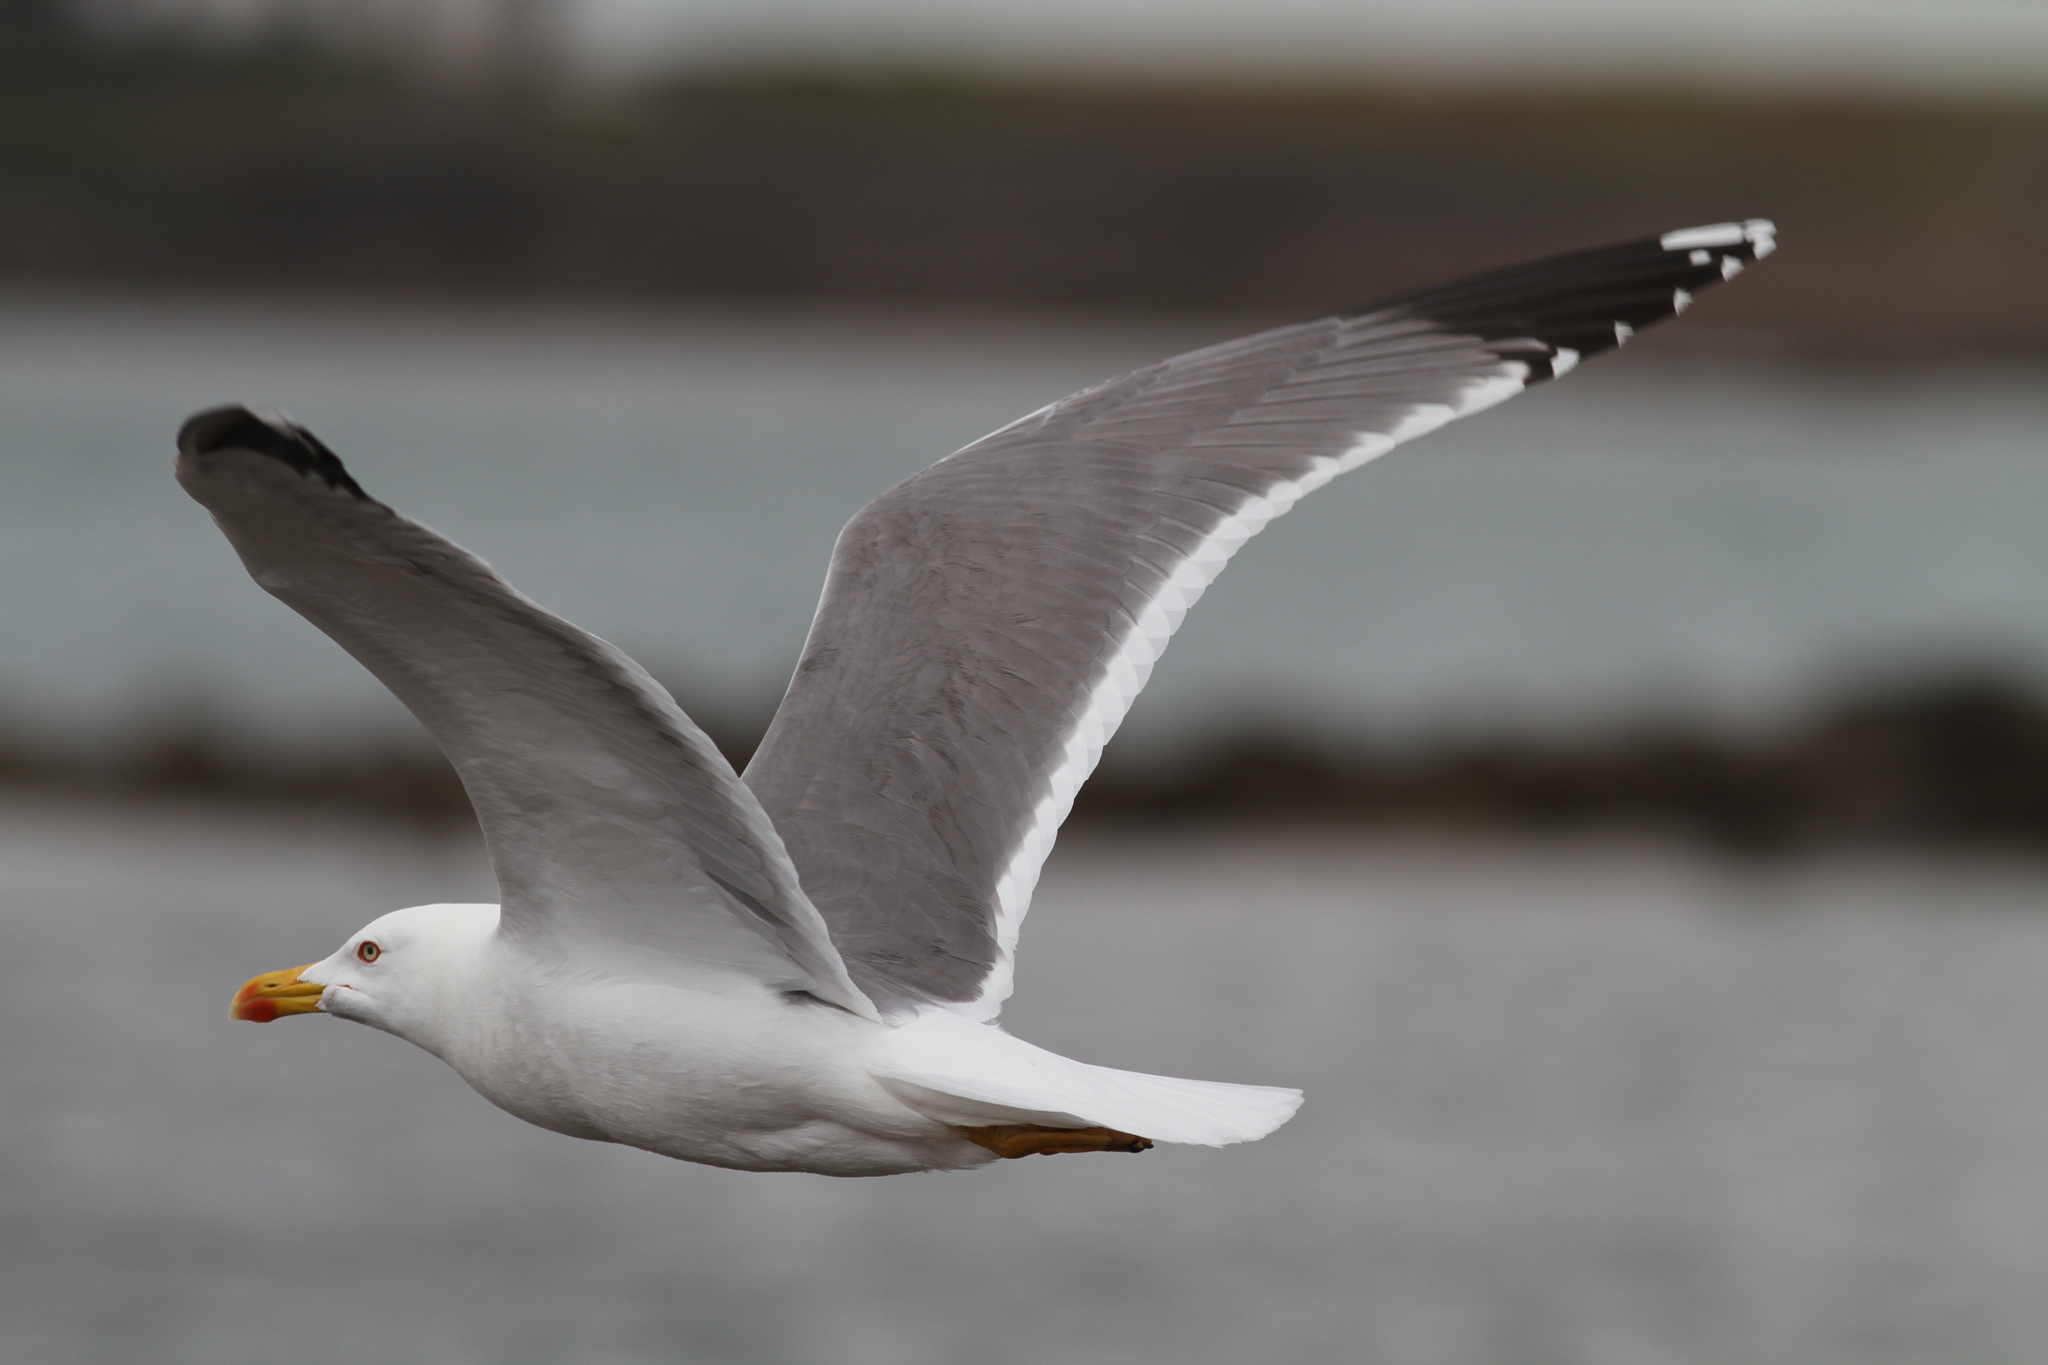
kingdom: Animalia
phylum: Chordata
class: Aves
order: Charadriiformes
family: Laridae
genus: Larus
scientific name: Larus michahellis
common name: Yellow-legged gull
